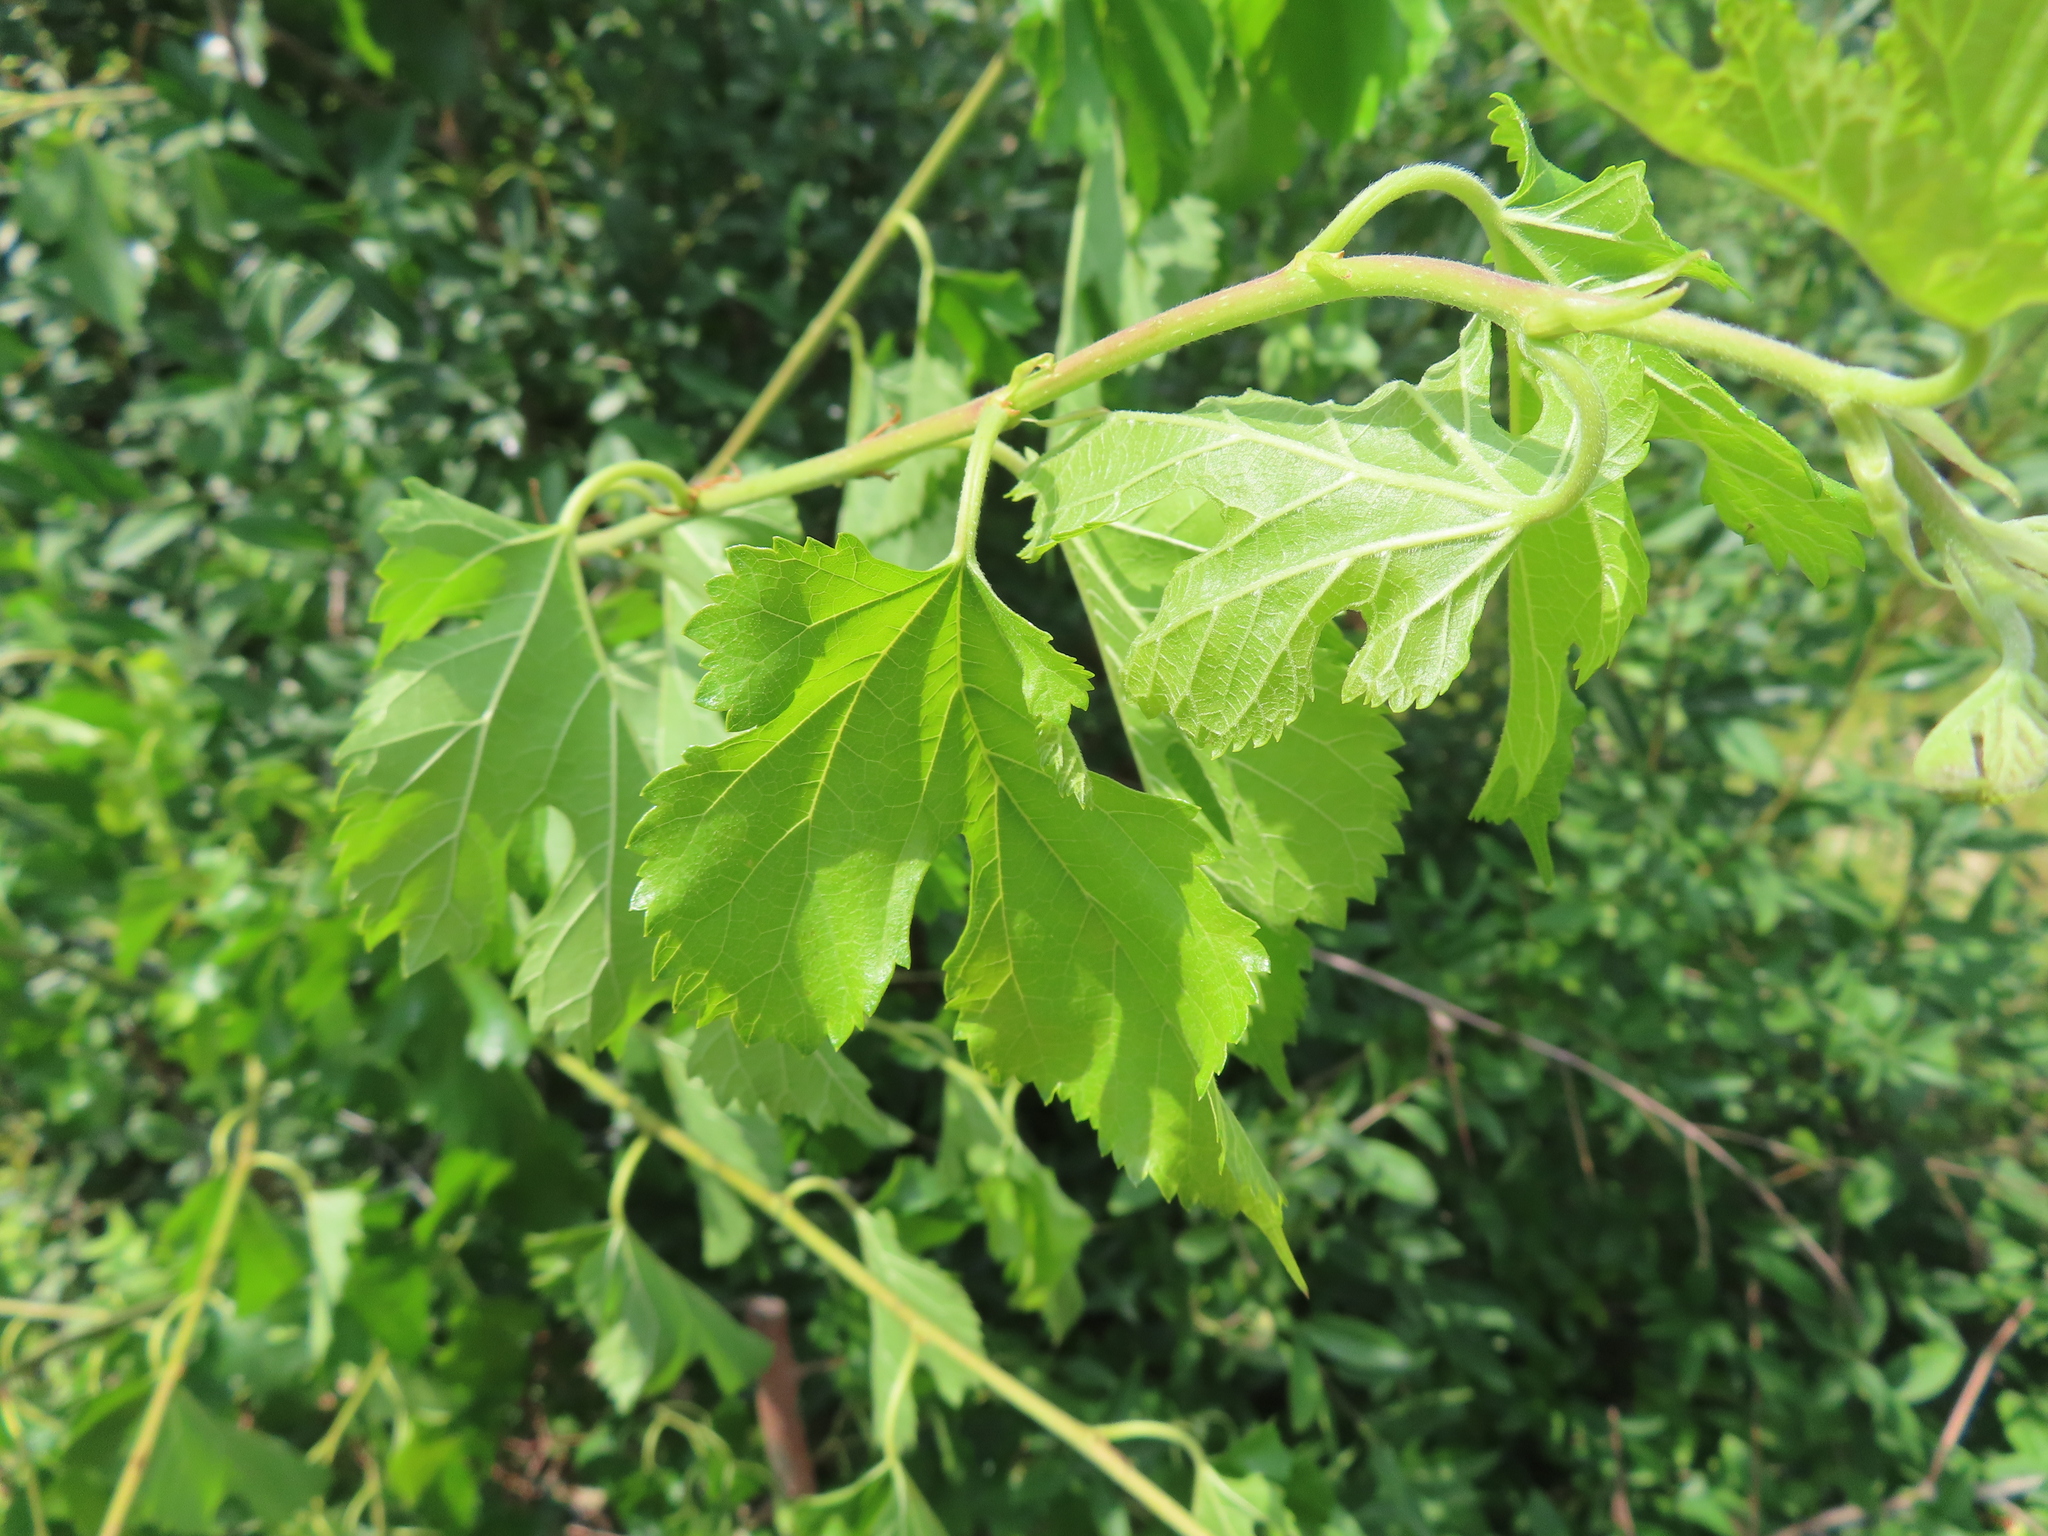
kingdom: Plantae
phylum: Tracheophyta
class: Magnoliopsida
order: Rosales
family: Moraceae
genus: Morus
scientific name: Morus alba
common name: White mulberry
